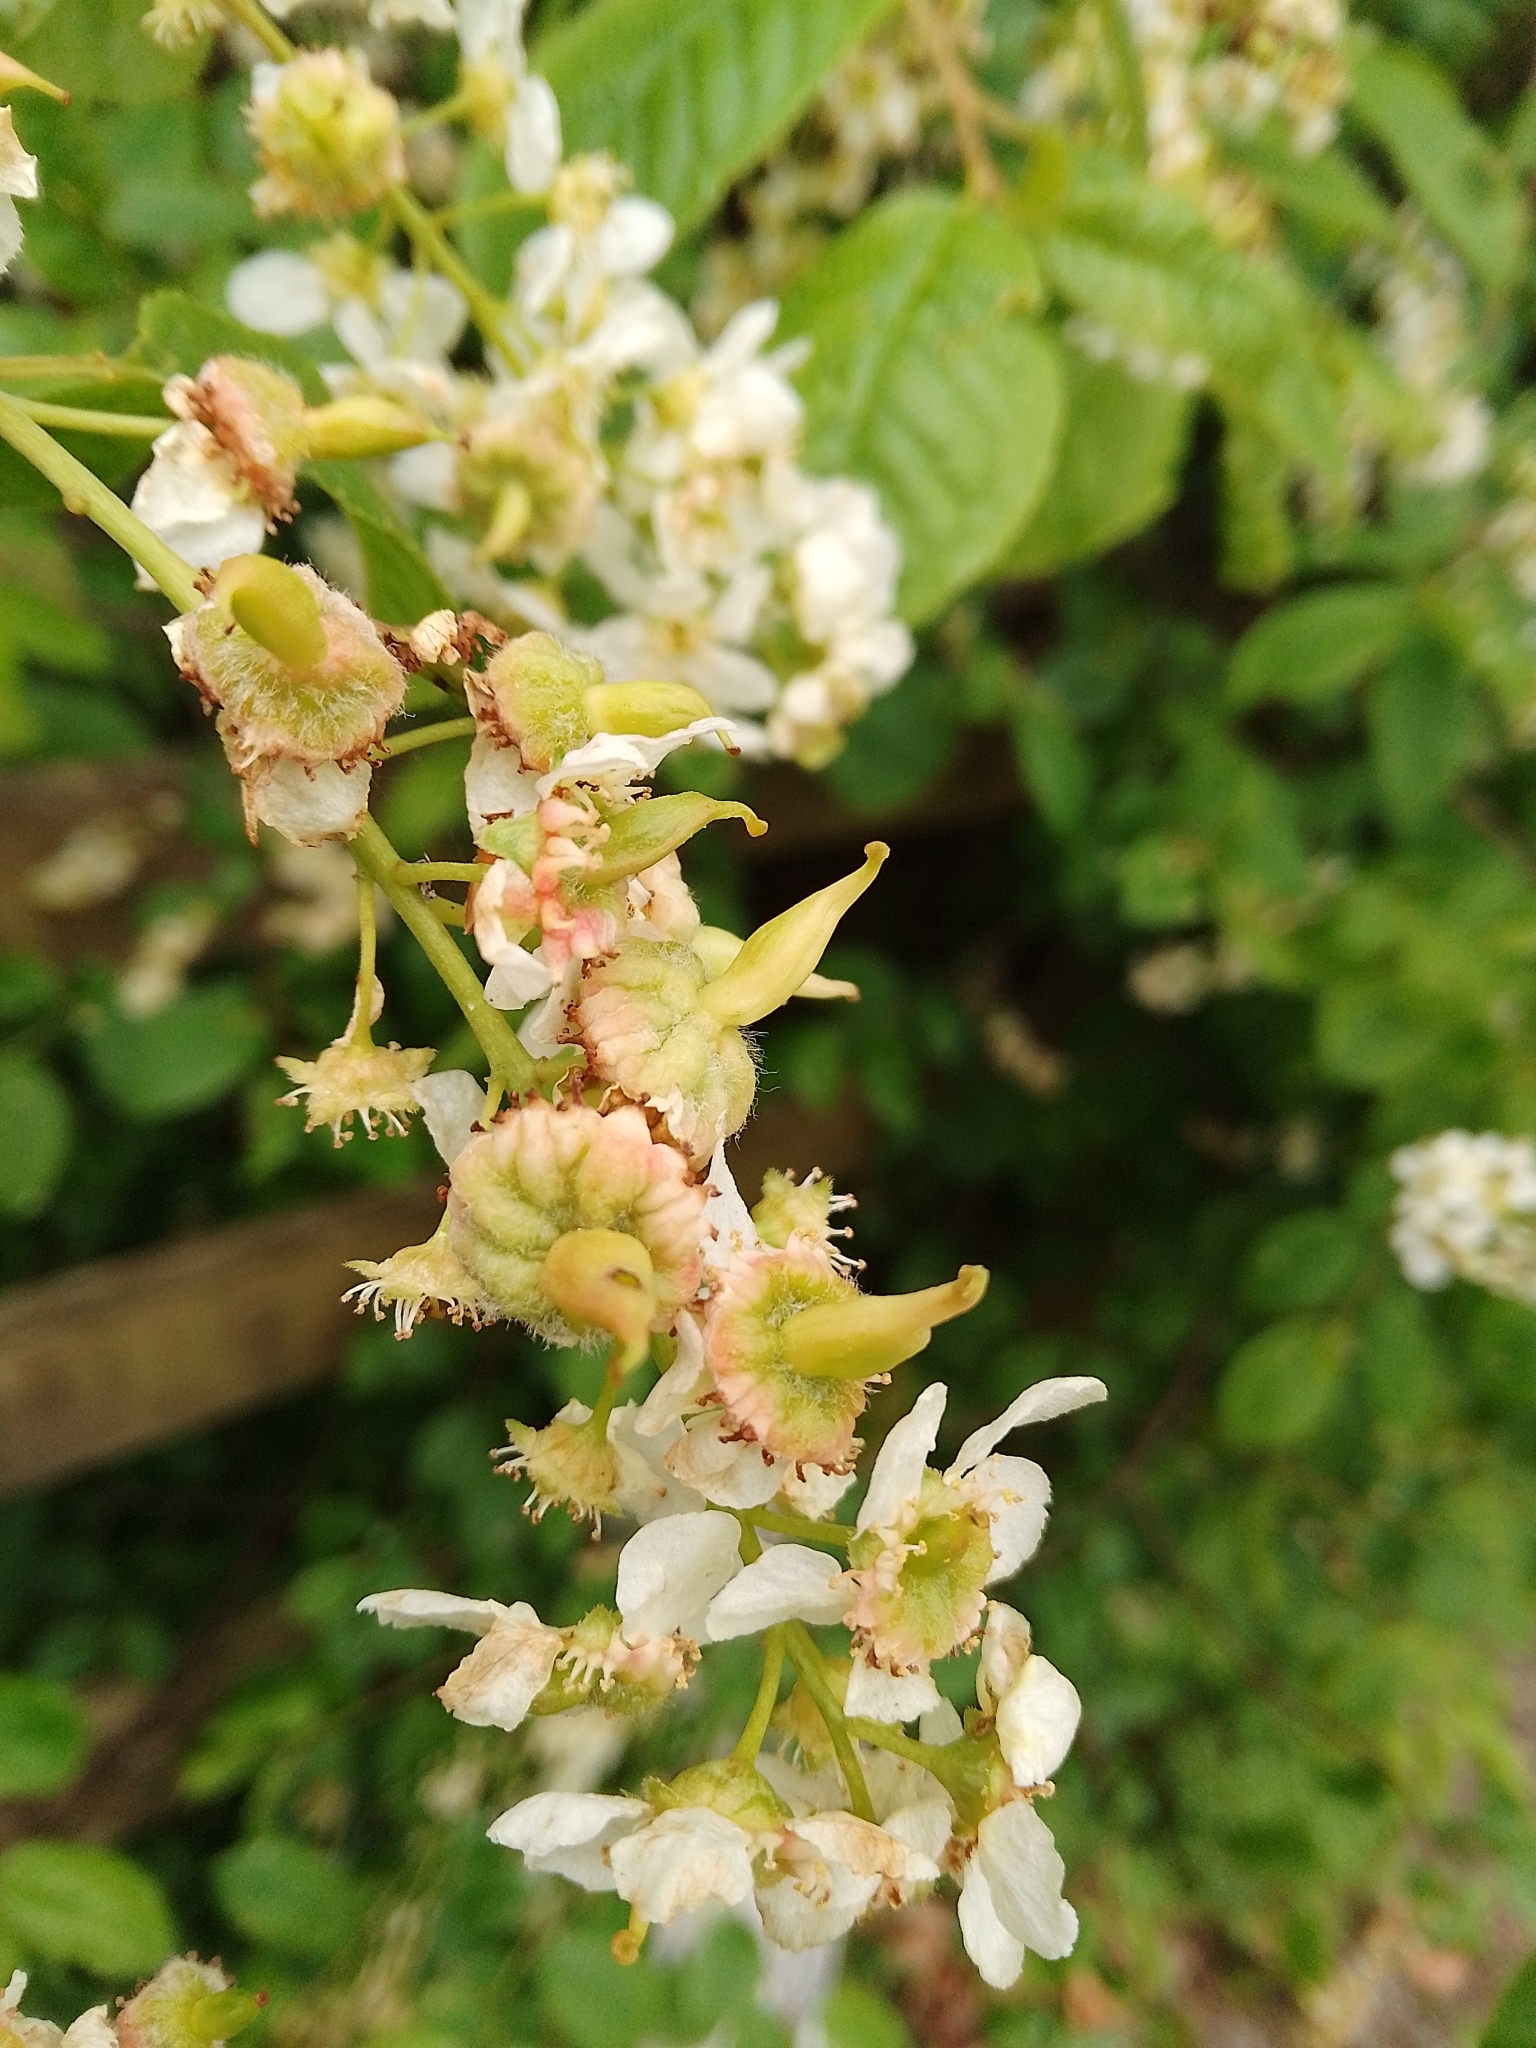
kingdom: Fungi
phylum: Ascomycota
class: Taphrinomycetes
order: Taphrinales
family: Taphrinaceae
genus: Taphrina
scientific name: Taphrina padi
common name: Bird cherry pocket
